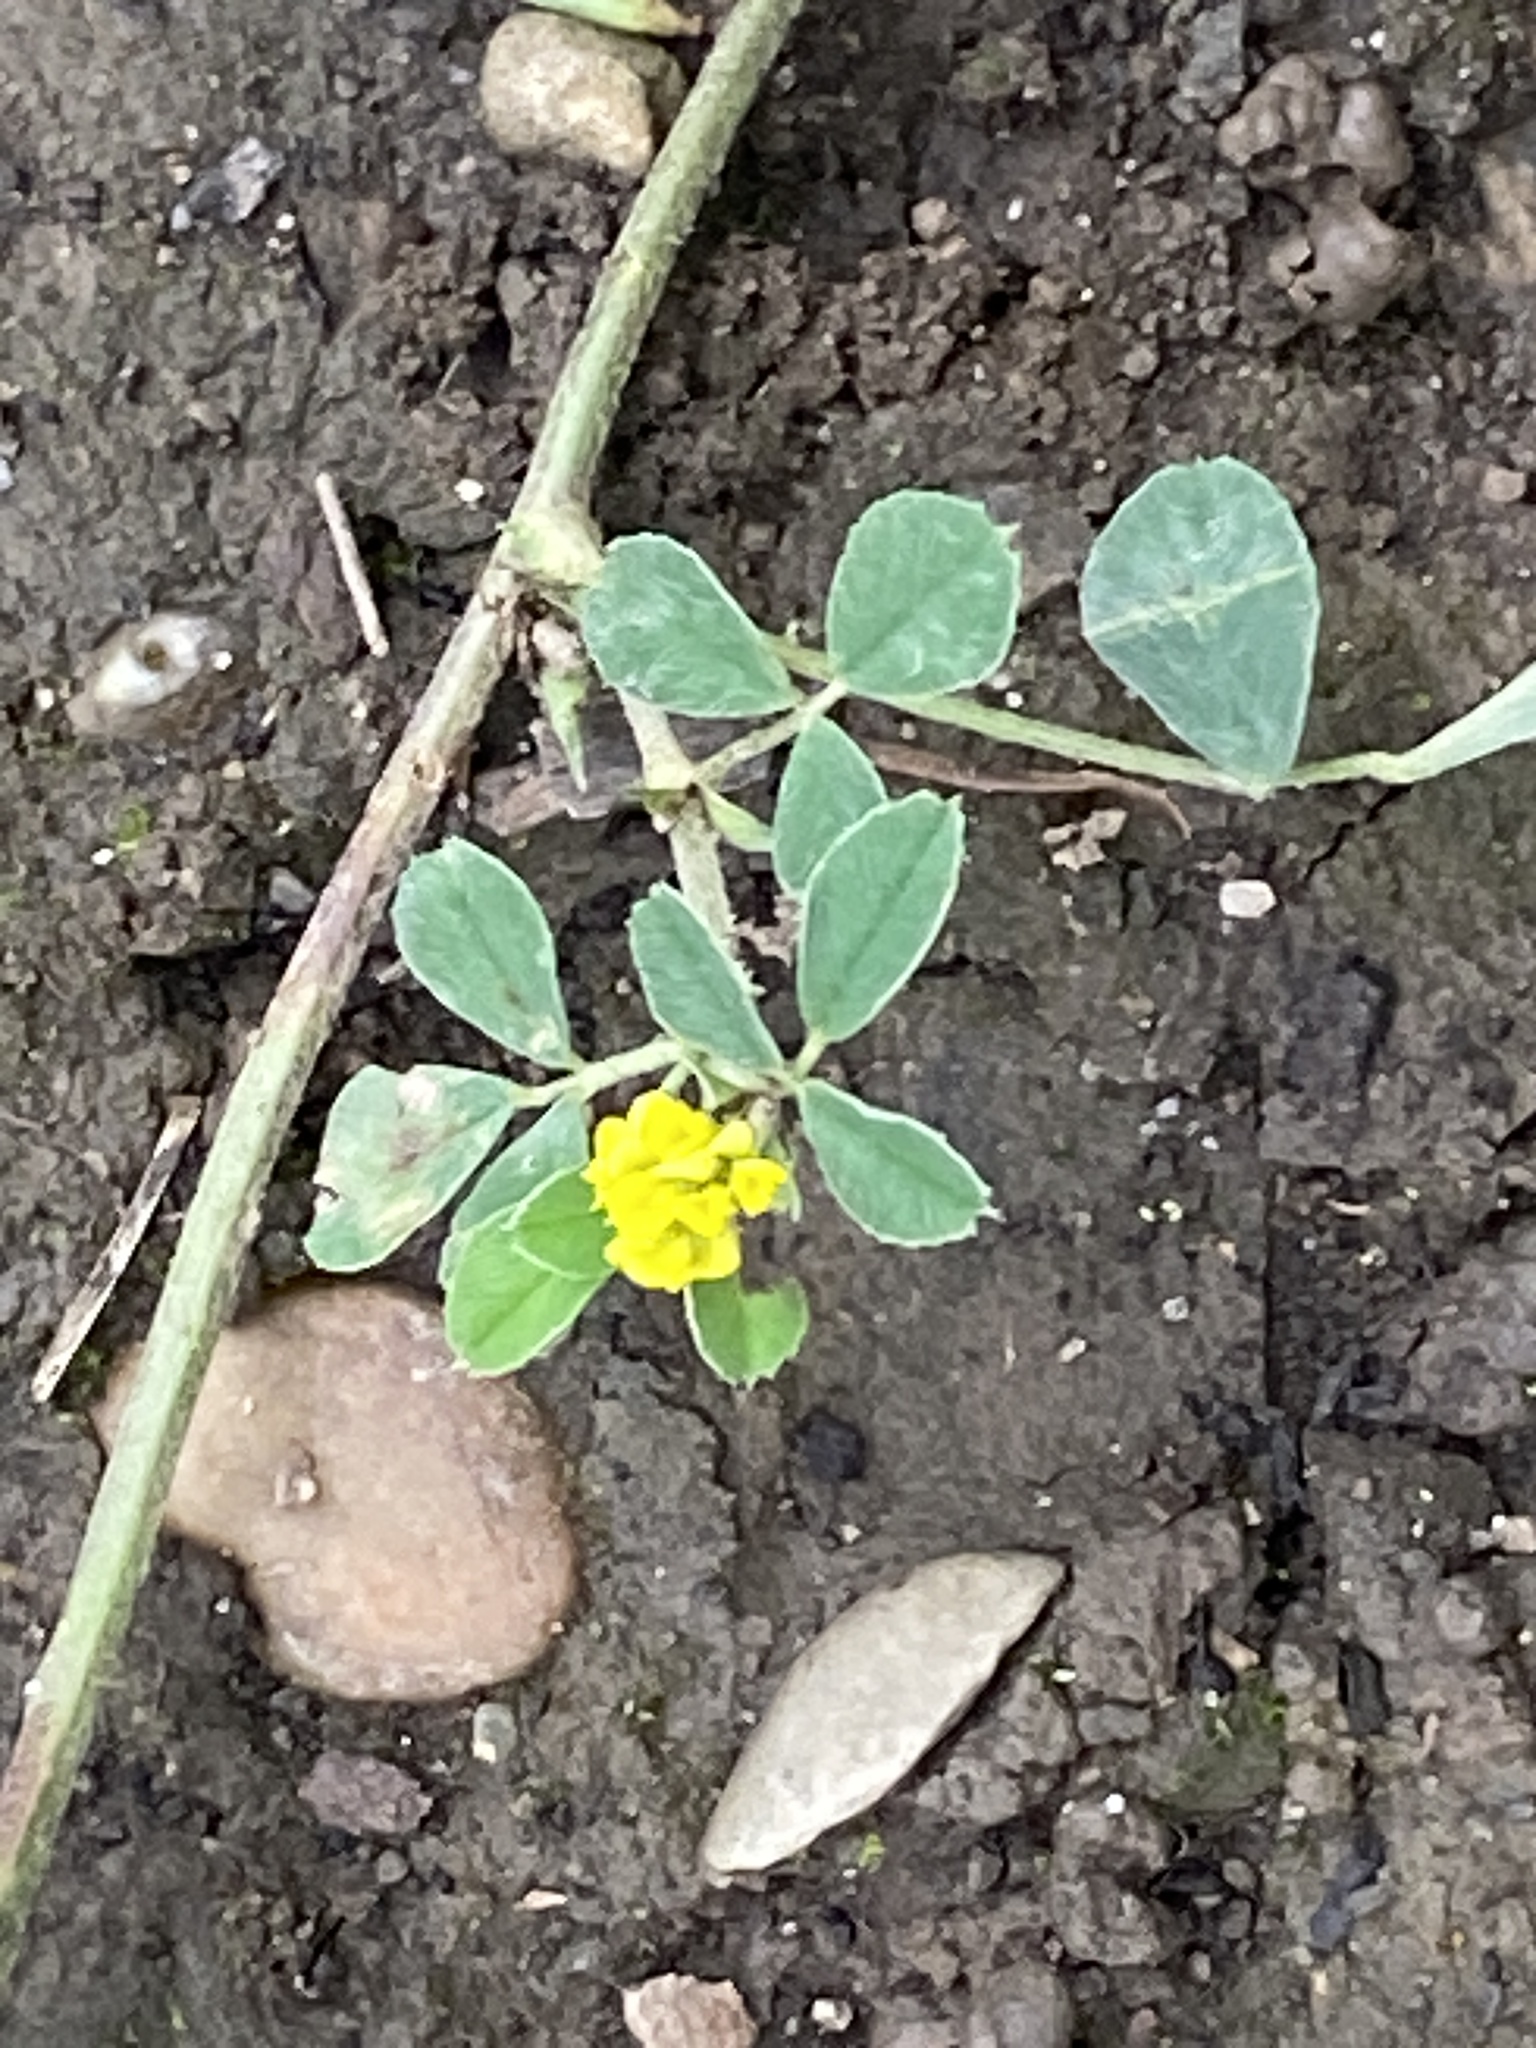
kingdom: Plantae
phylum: Tracheophyta
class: Magnoliopsida
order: Fabales
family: Fabaceae
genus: Medicago
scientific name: Medicago lupulina
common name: Black medick
